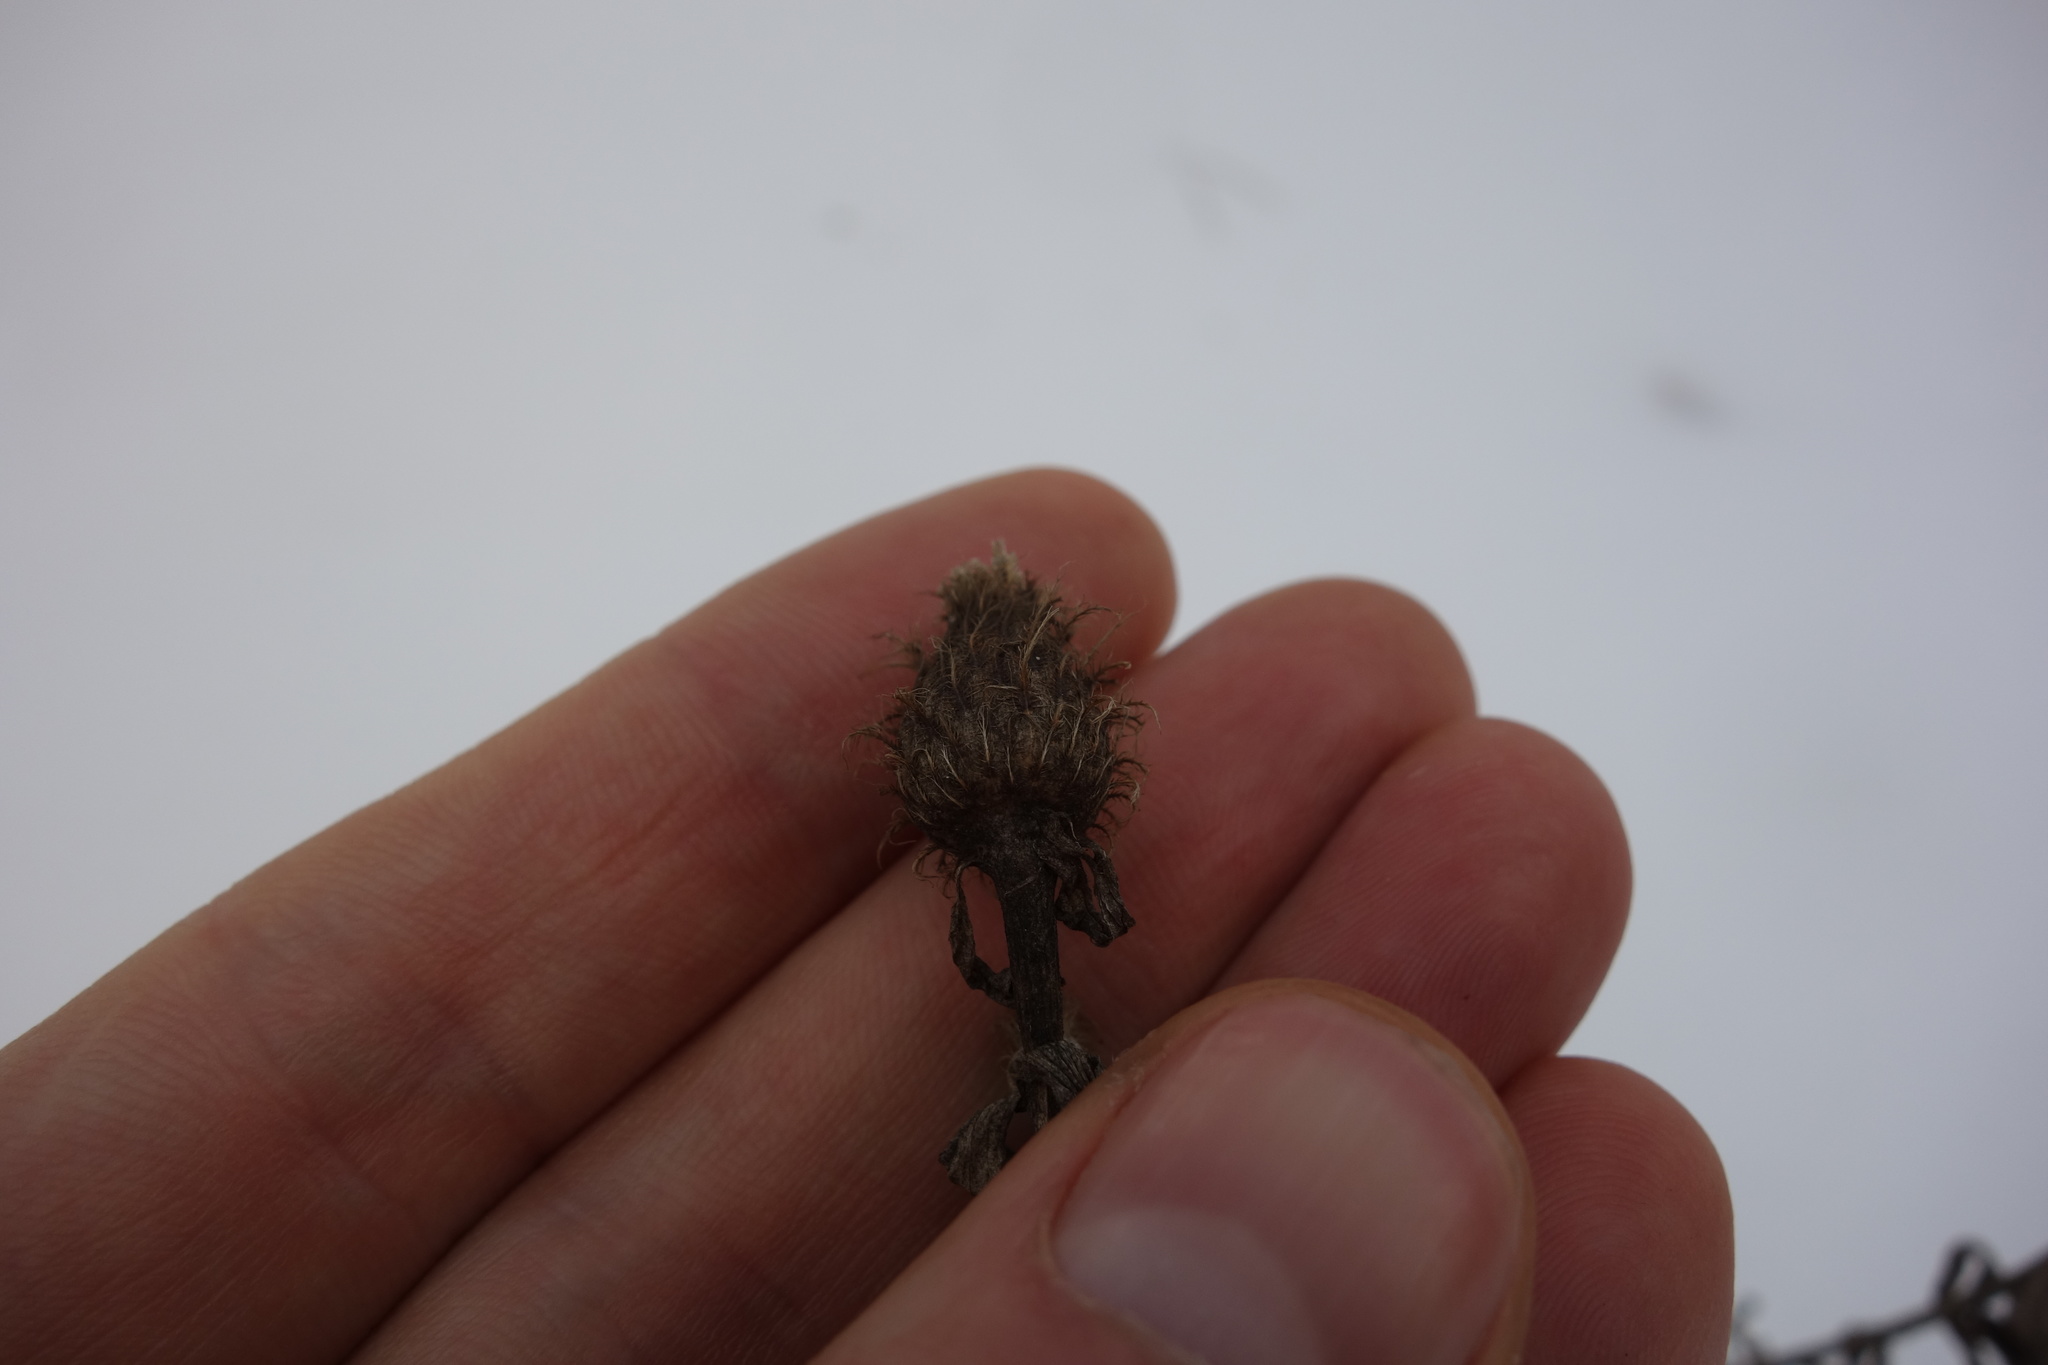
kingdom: Plantae
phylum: Tracheophyta
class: Magnoliopsida
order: Asterales
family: Asteraceae
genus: Centaurea
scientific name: Centaurea pseudophrygia
